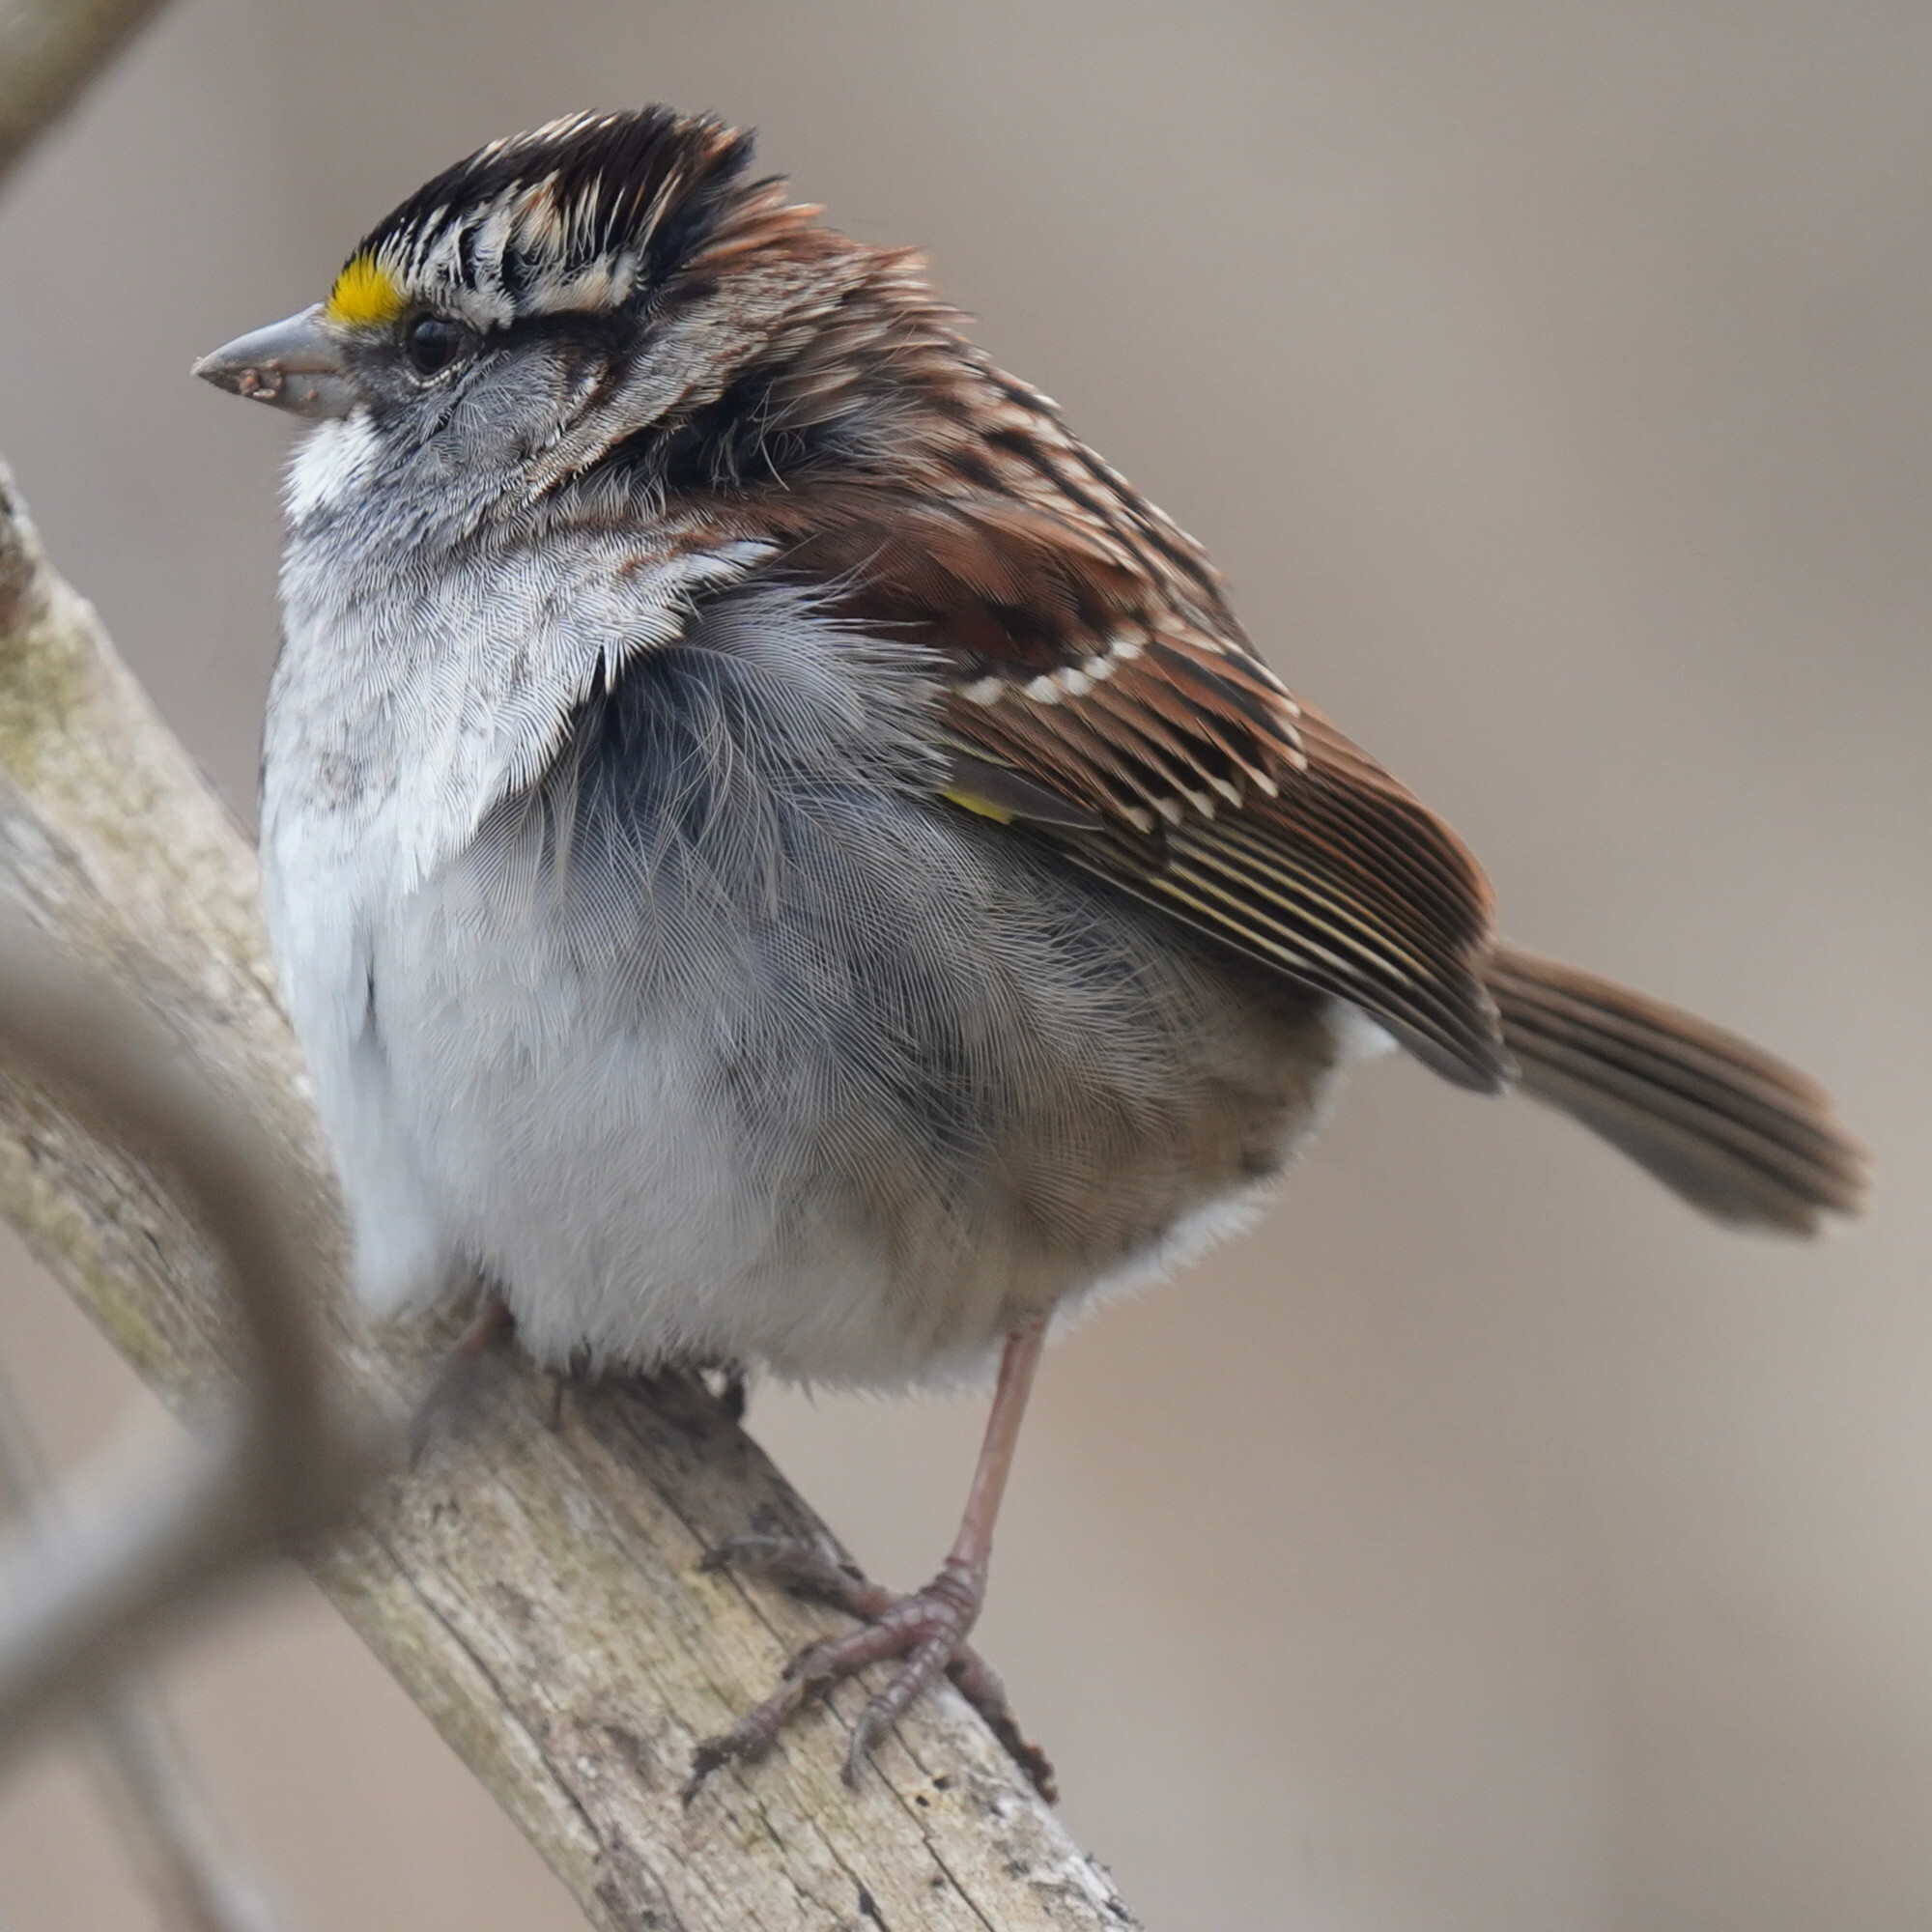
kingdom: Animalia
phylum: Chordata
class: Aves
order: Passeriformes
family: Passerellidae
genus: Zonotrichia
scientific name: Zonotrichia albicollis
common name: White-throated sparrow
